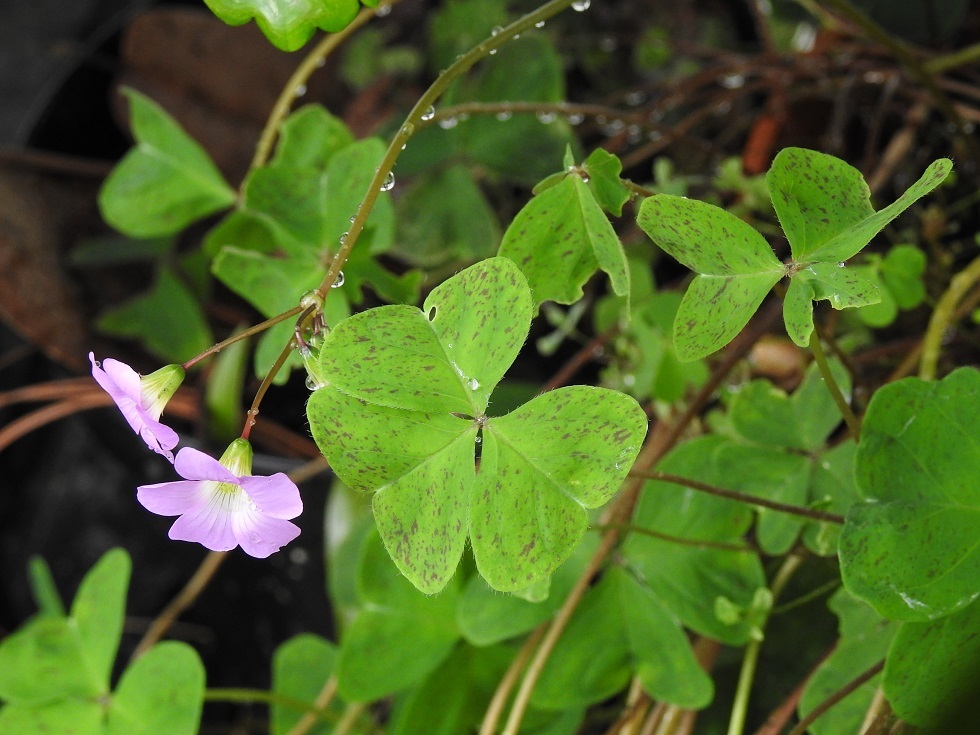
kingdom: Plantae
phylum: Tracheophyta
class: Magnoliopsida
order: Oxalidales
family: Oxalidaceae
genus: Oxalis
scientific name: Oxalis alpina
